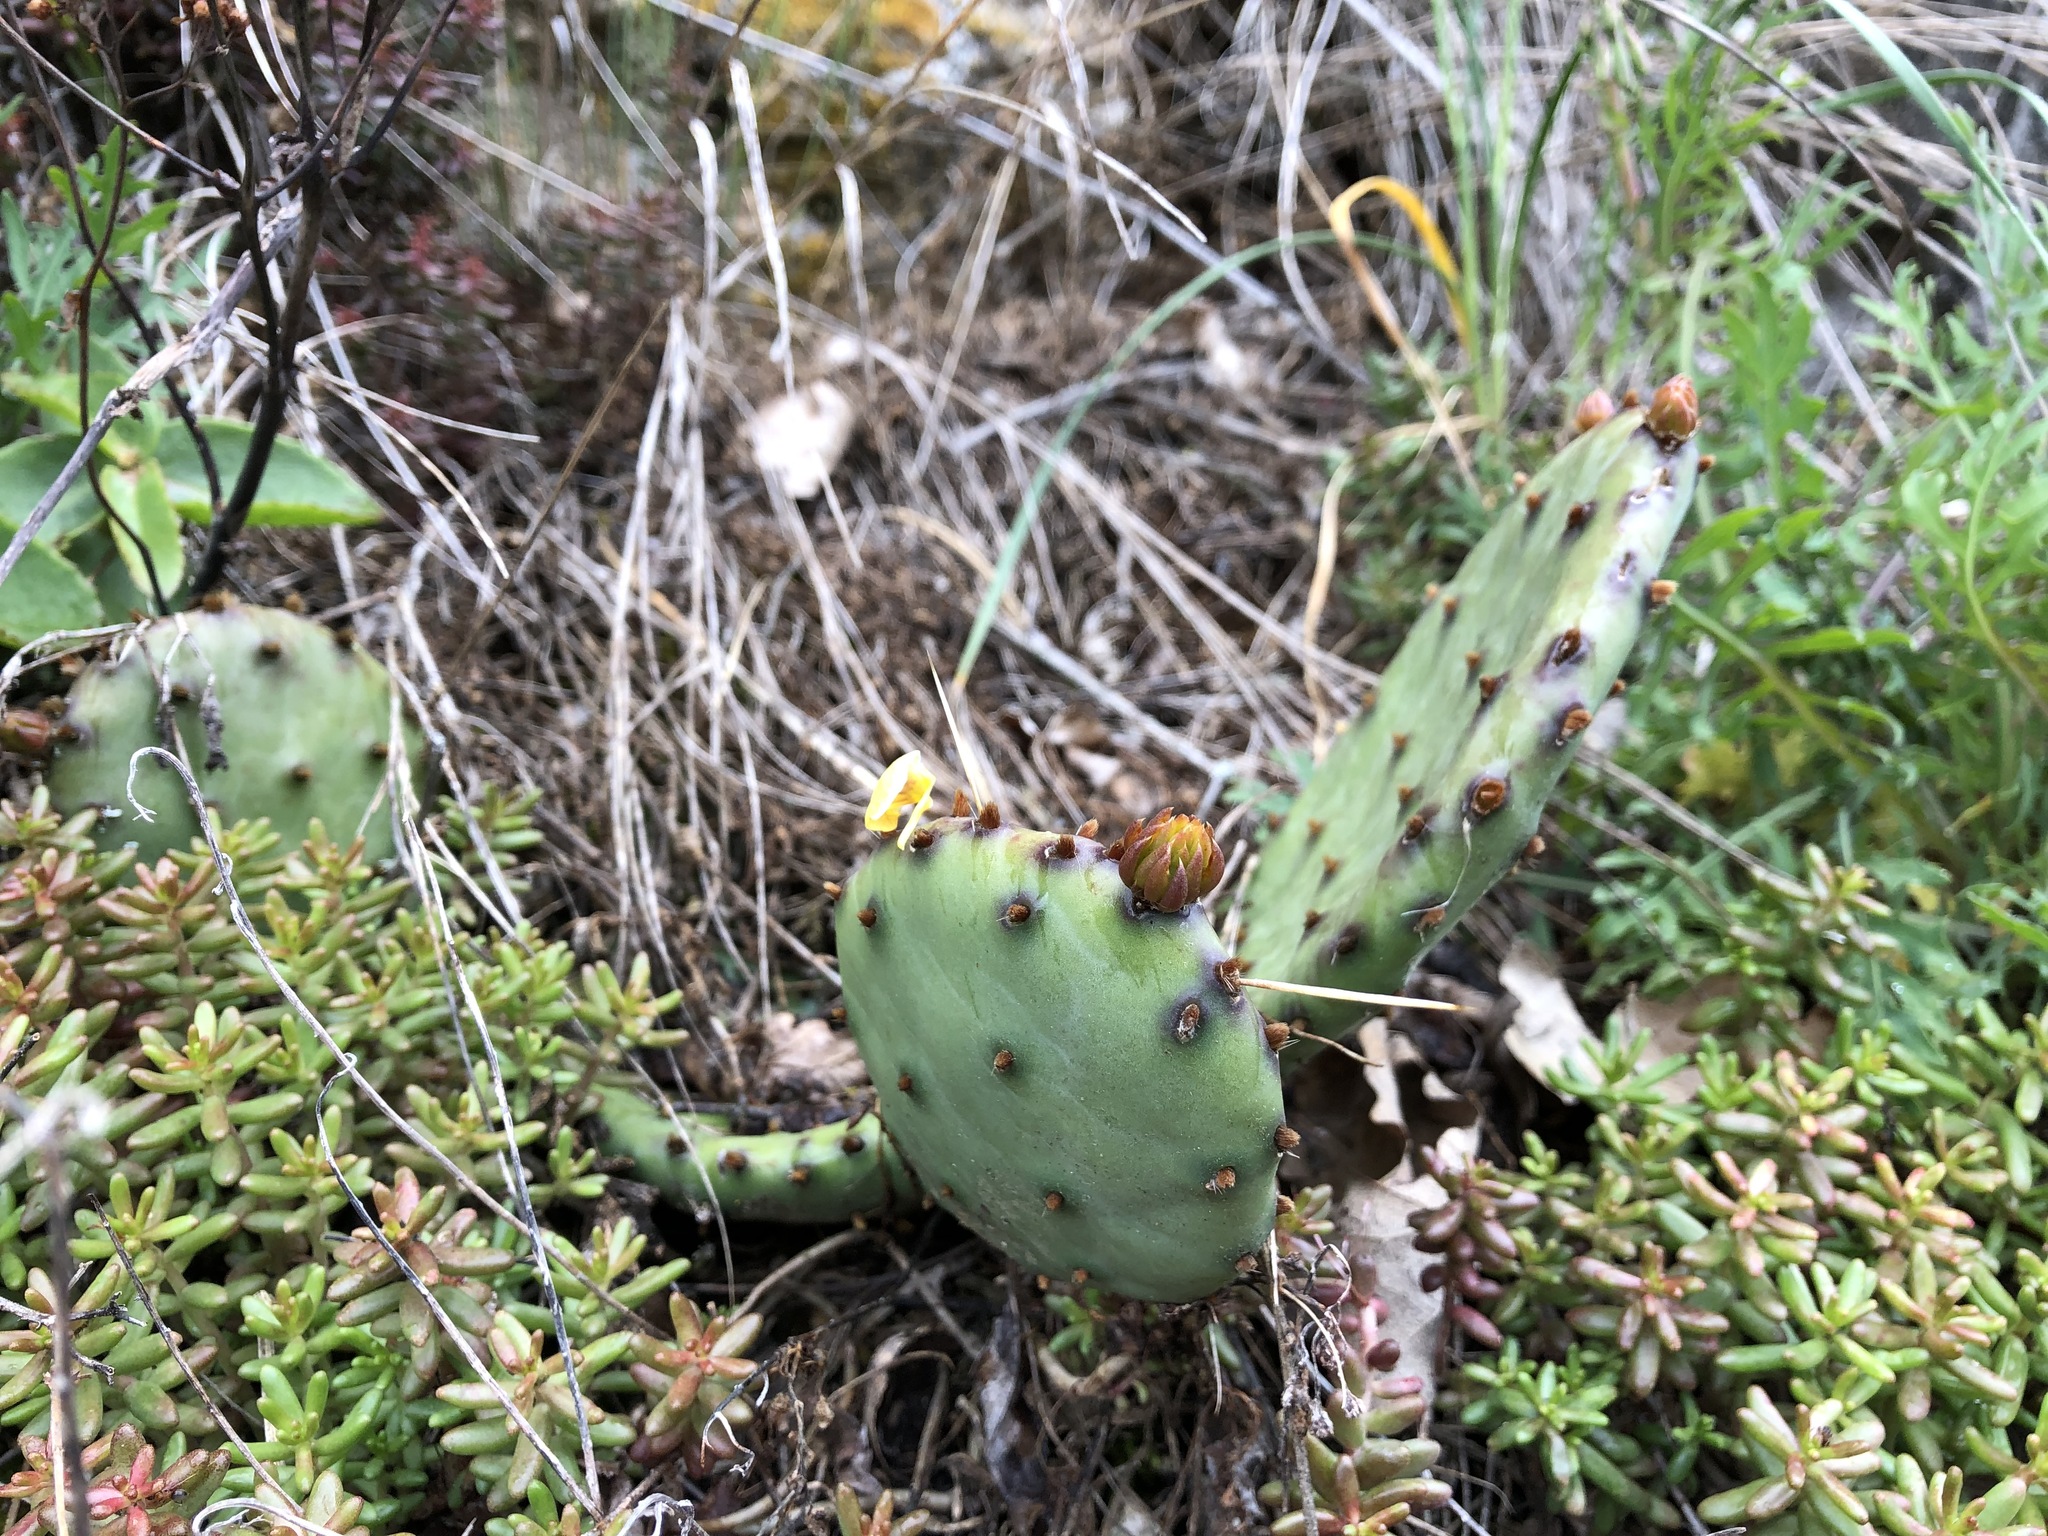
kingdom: Plantae
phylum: Tracheophyta
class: Magnoliopsida
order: Caryophyllales
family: Cactaceae
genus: Opuntia
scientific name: Opuntia humifusa
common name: Eastern prickly-pear
